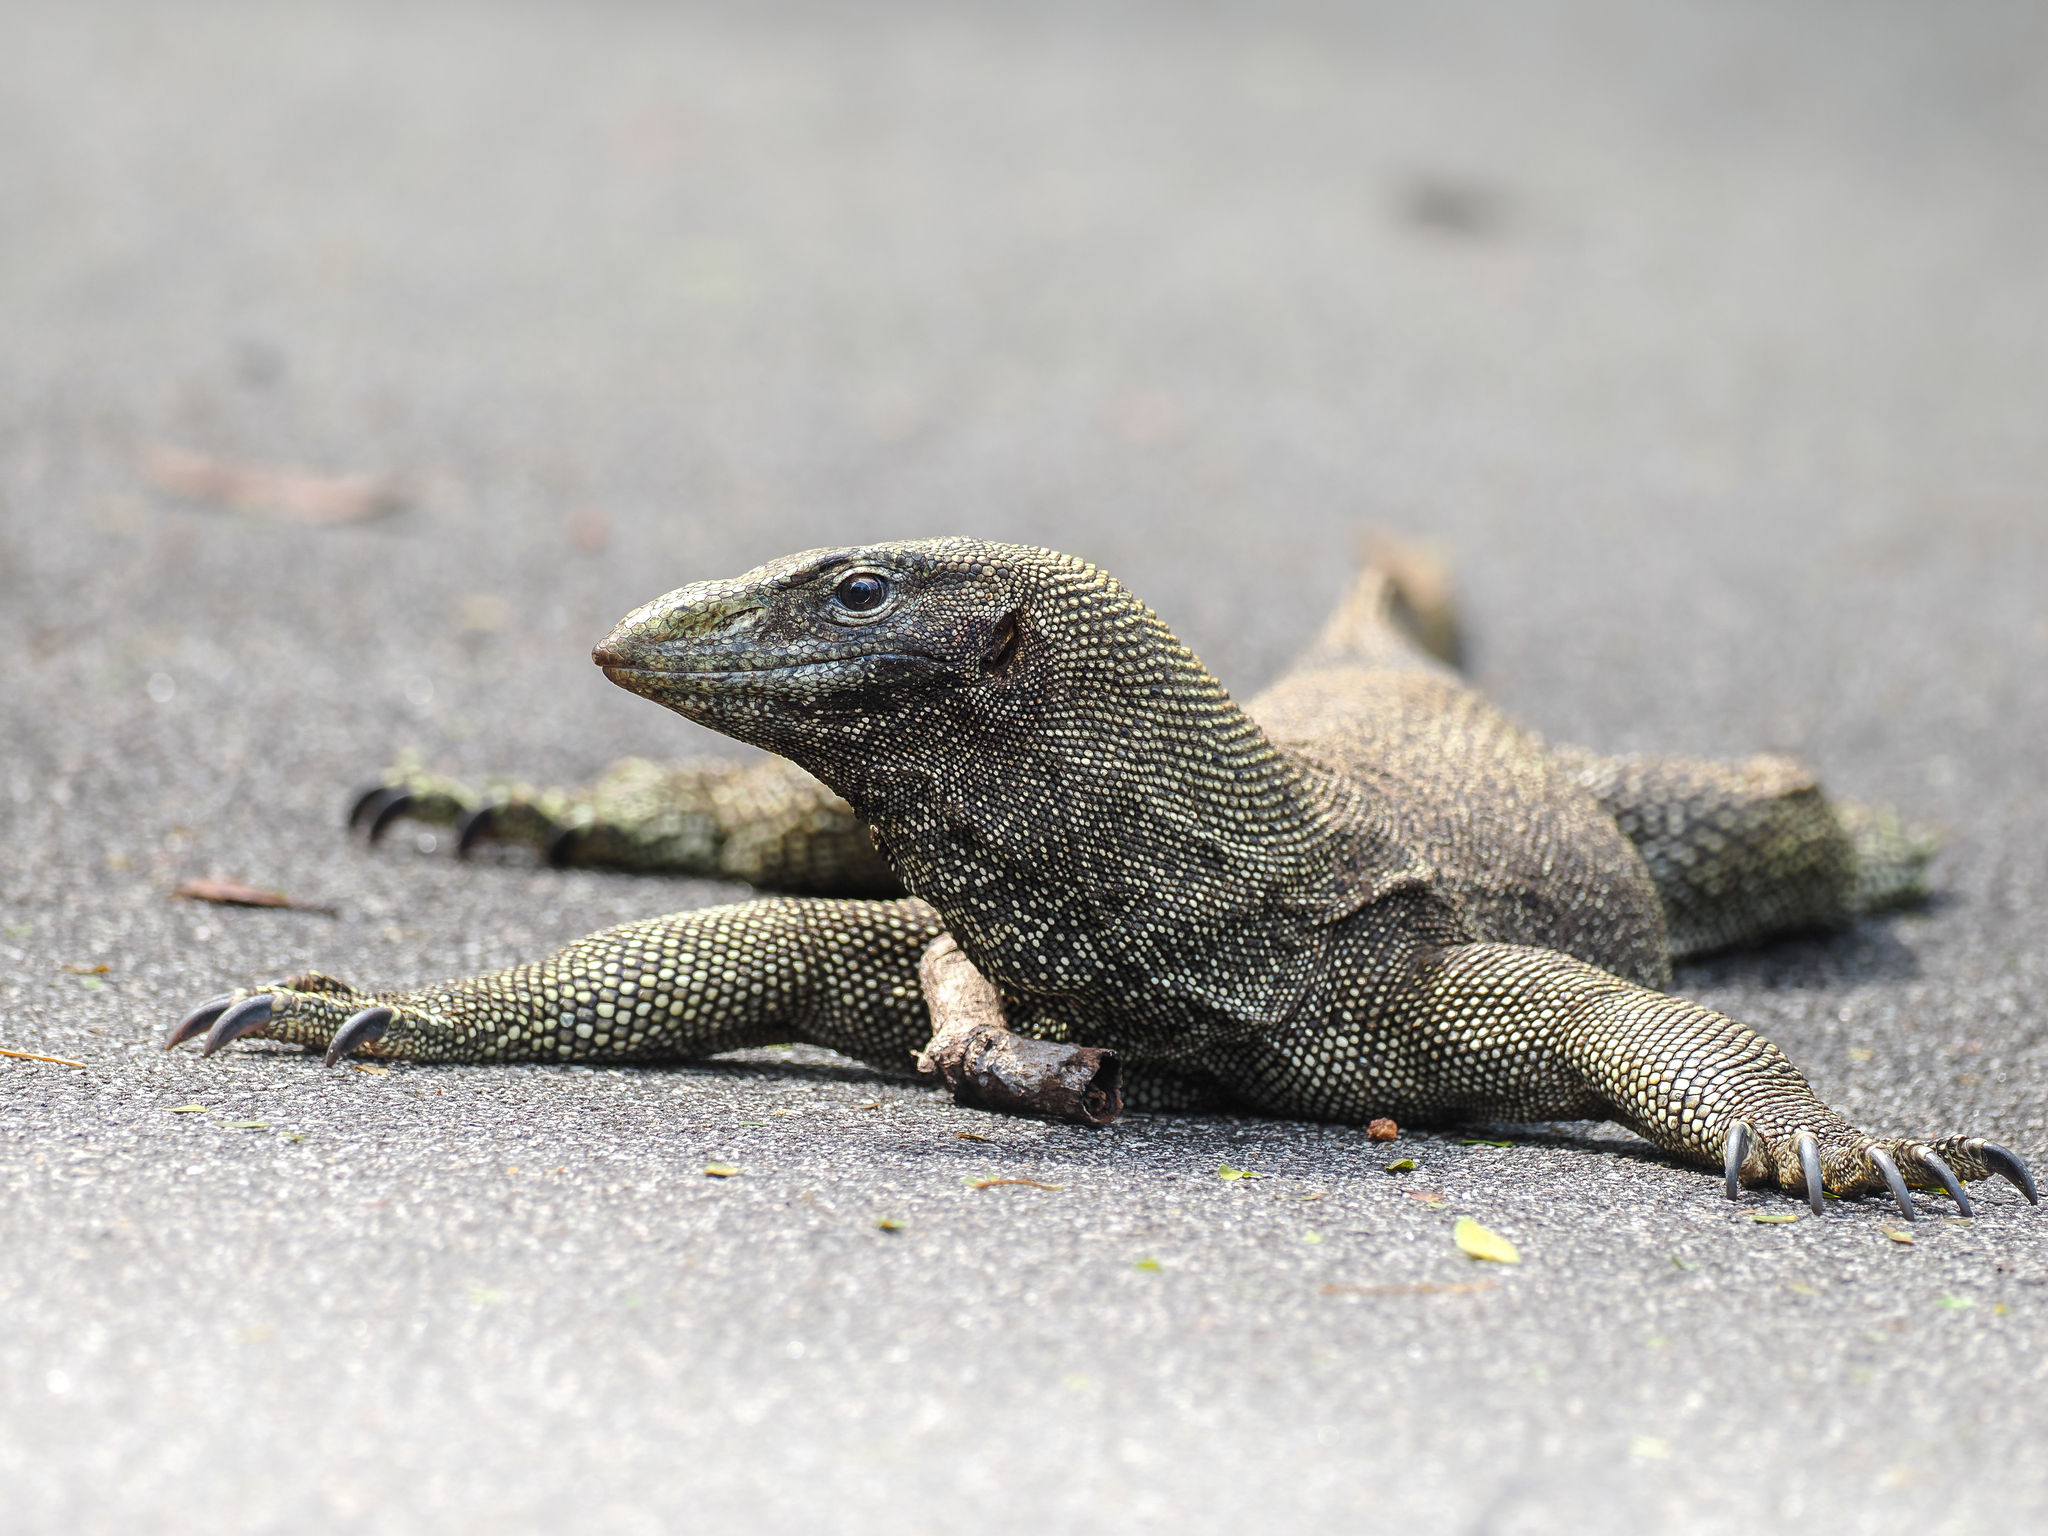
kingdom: Animalia
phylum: Chordata
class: Squamata
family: Varanidae
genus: Varanus
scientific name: Varanus nebulosus
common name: Clouded monitor
